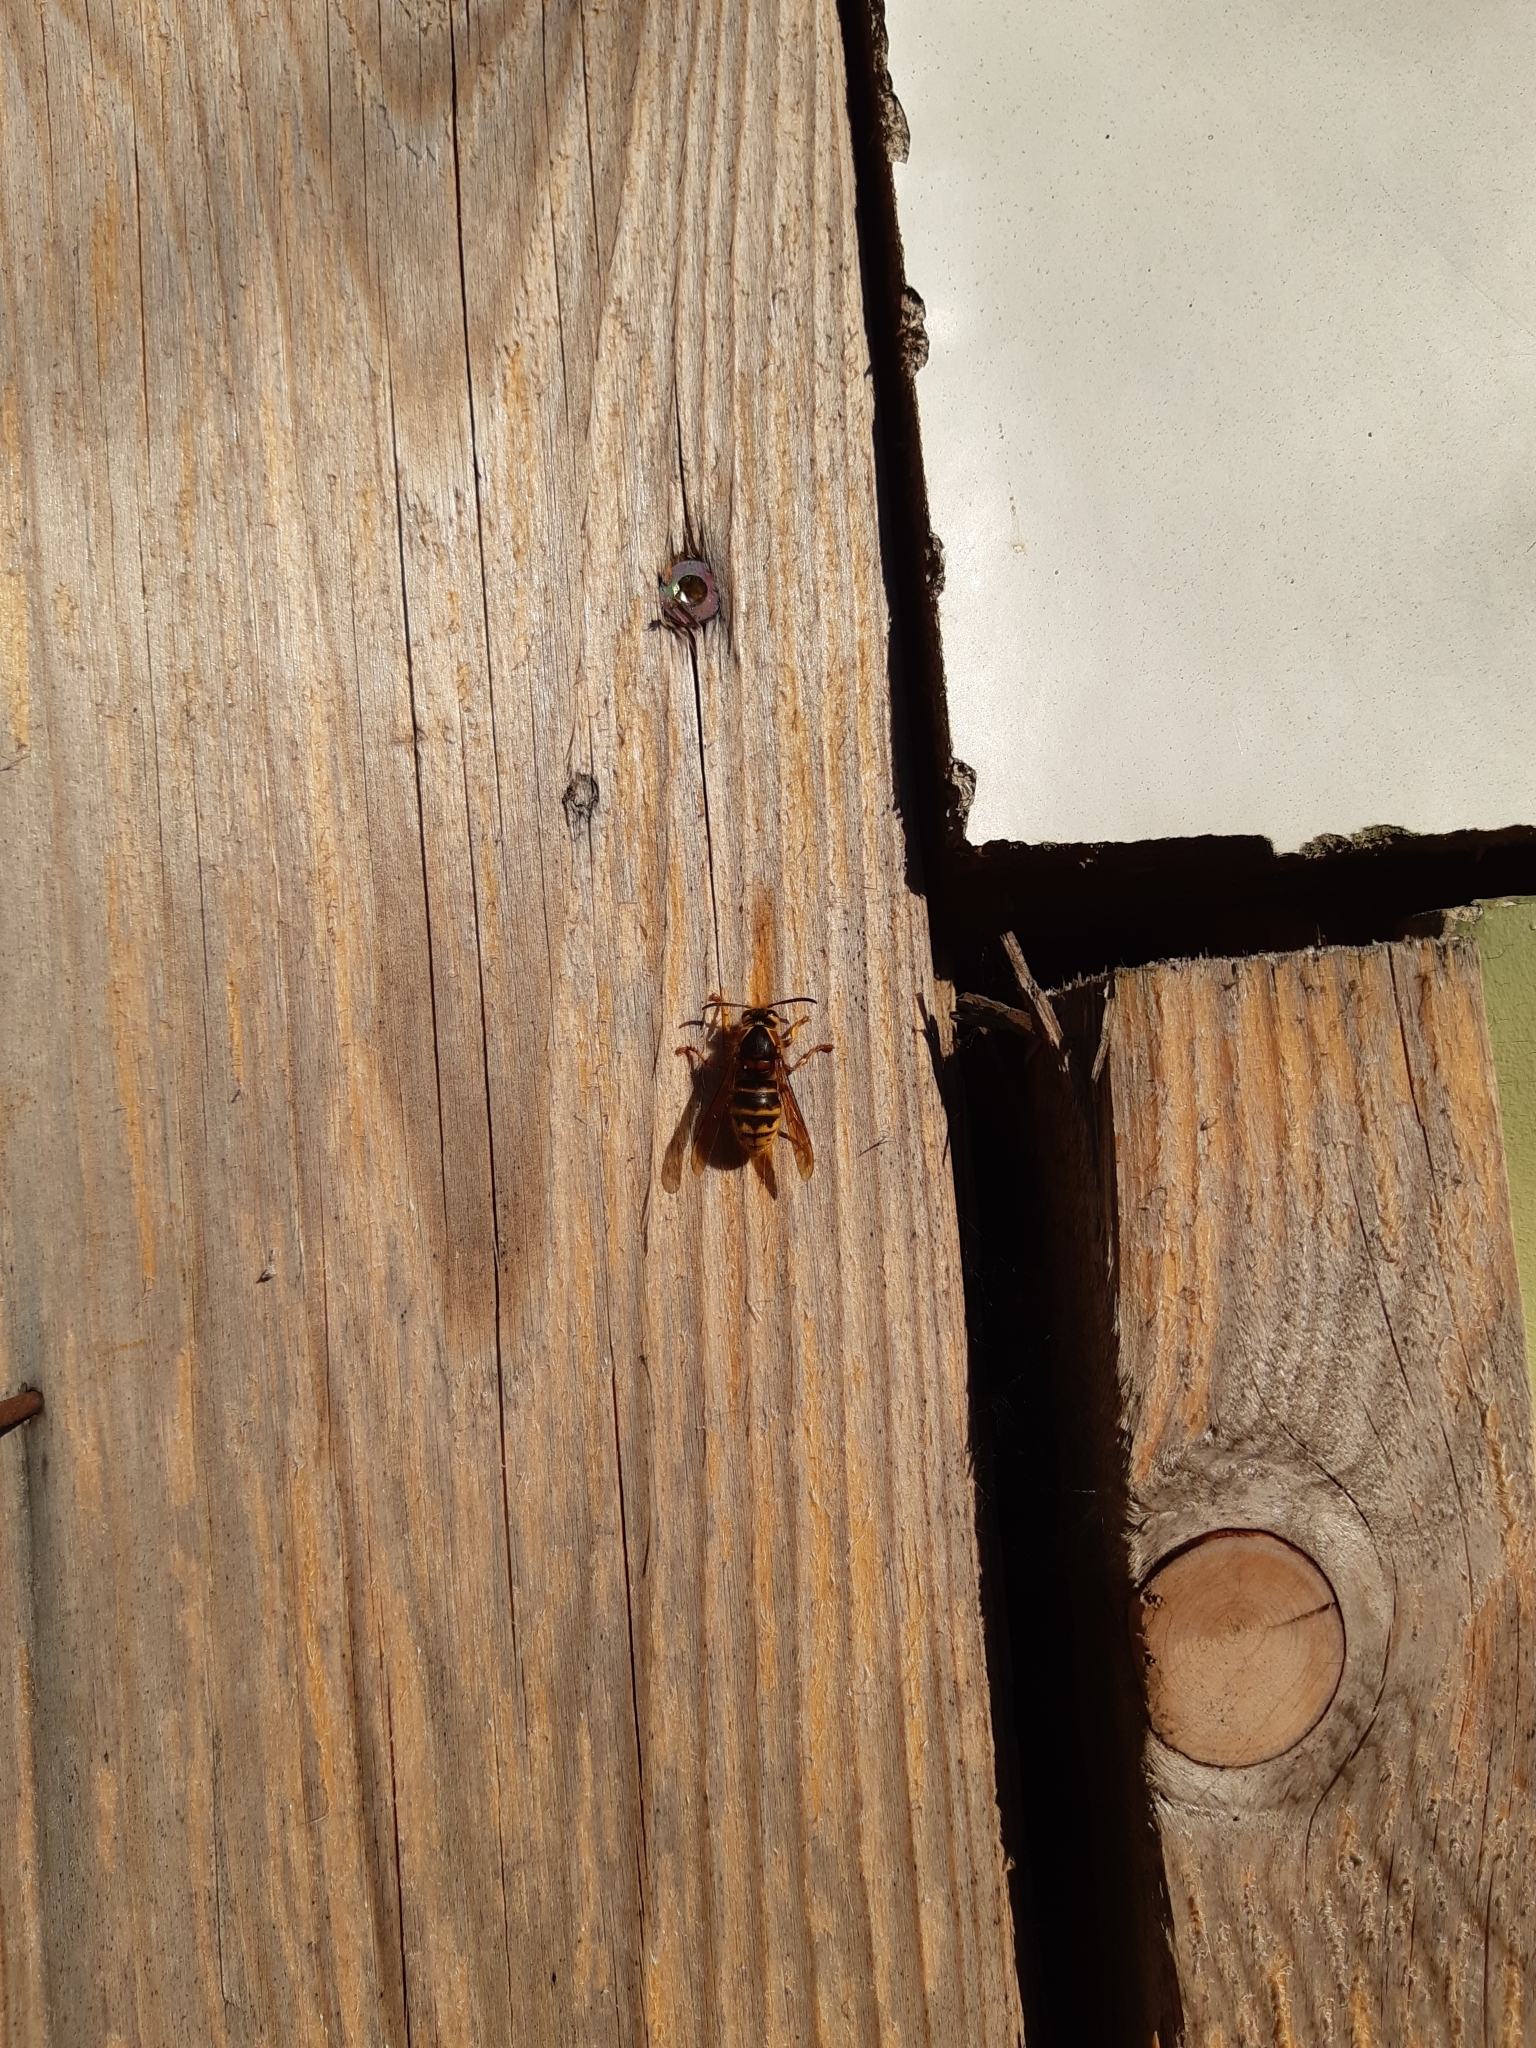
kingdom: Animalia
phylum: Arthropoda
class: Insecta
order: Hymenoptera
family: Vespidae
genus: Dolichovespula
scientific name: Dolichovespula media
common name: Median wasp
